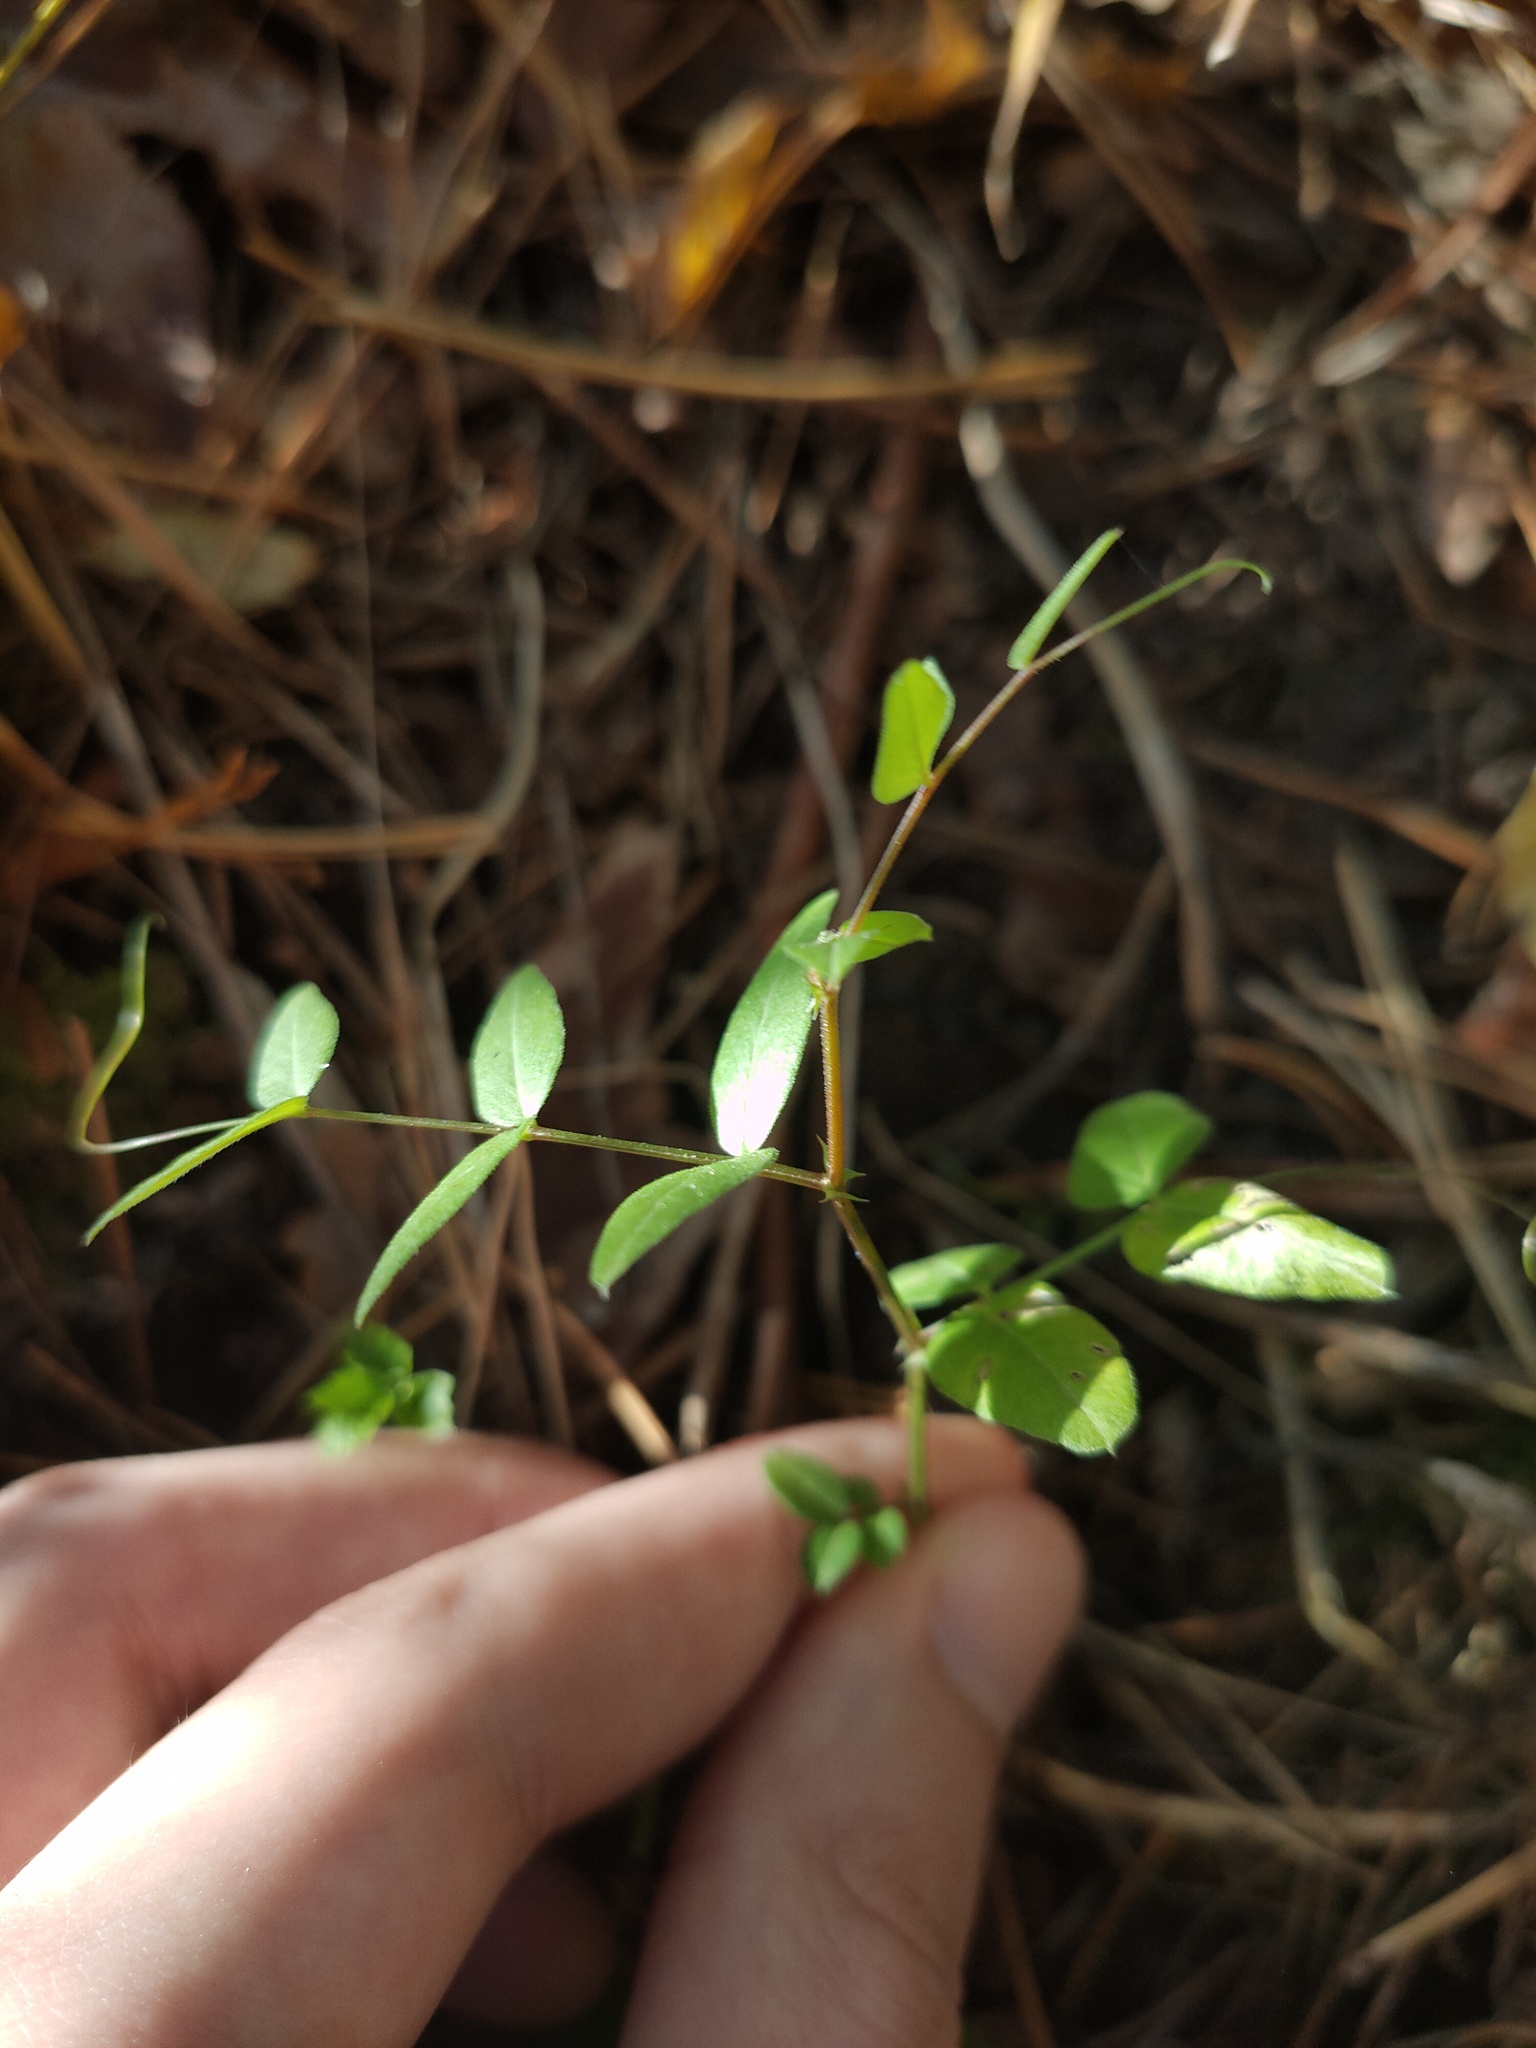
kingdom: Plantae
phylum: Tracheophyta
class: Magnoliopsida
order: Fabales
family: Fabaceae
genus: Vicia
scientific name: Vicia sepium
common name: Bush vetch
